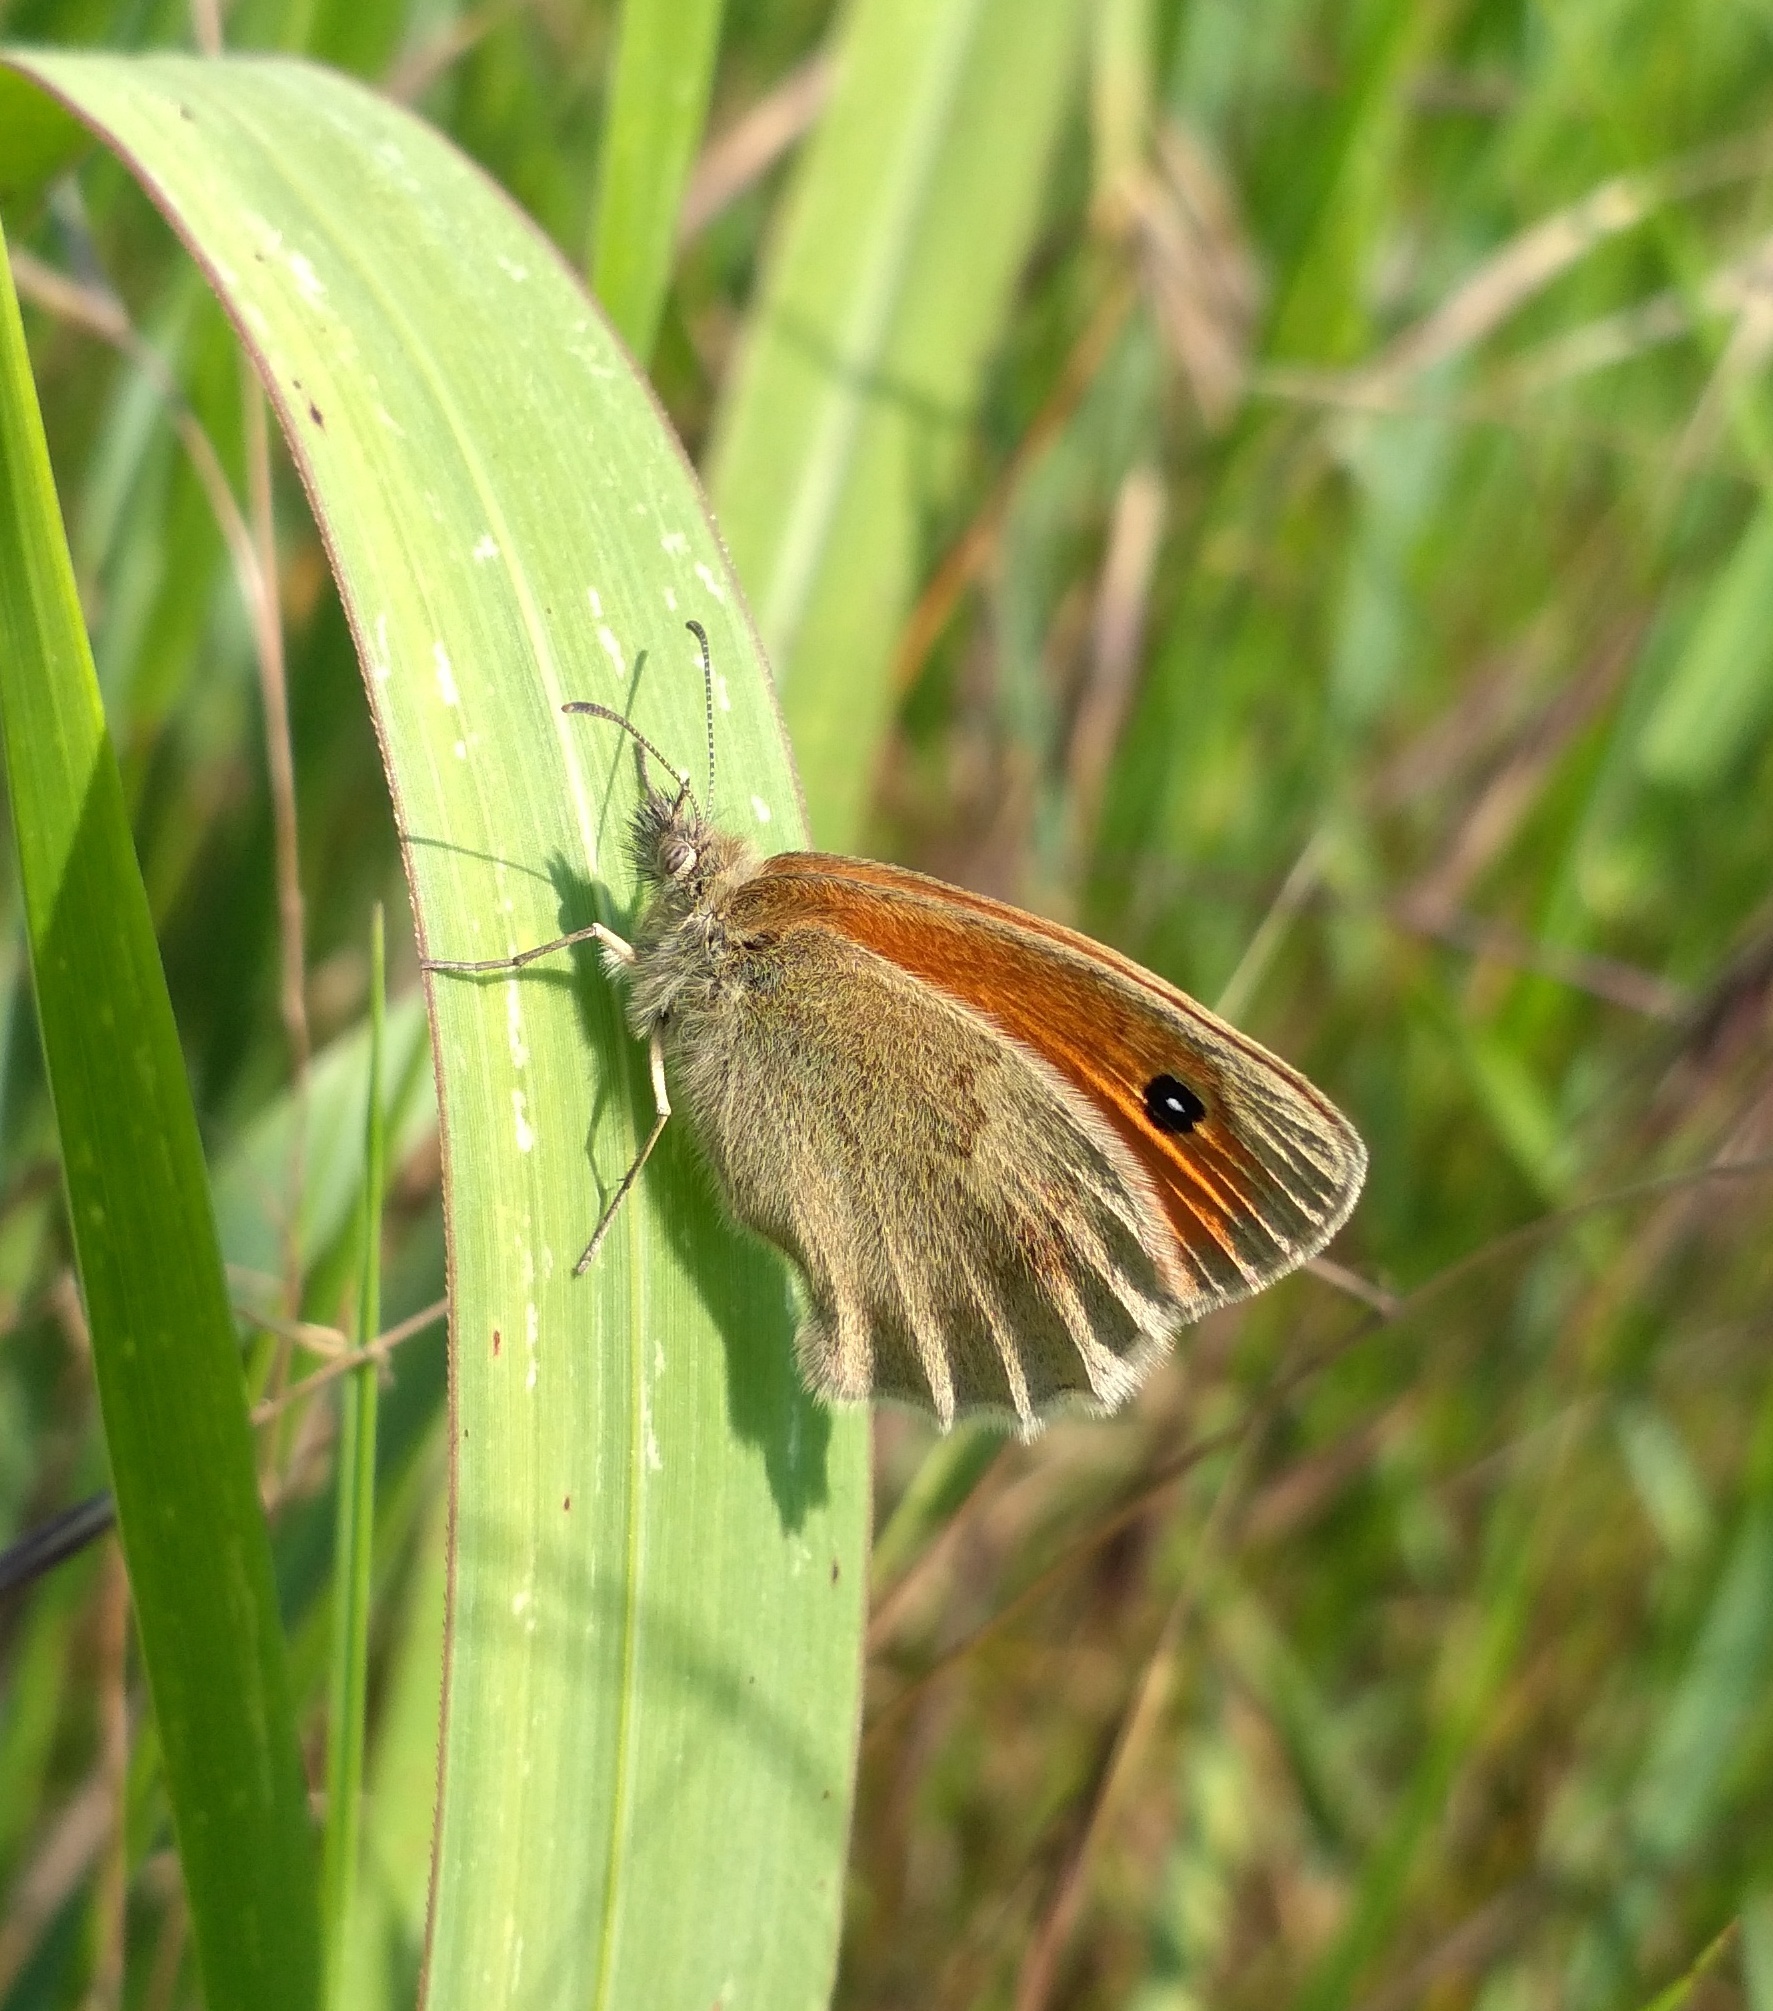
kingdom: Animalia
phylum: Arthropoda
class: Insecta
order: Lepidoptera
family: Nymphalidae
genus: Coenonympha
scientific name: Coenonympha pamphilus
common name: Small heath
